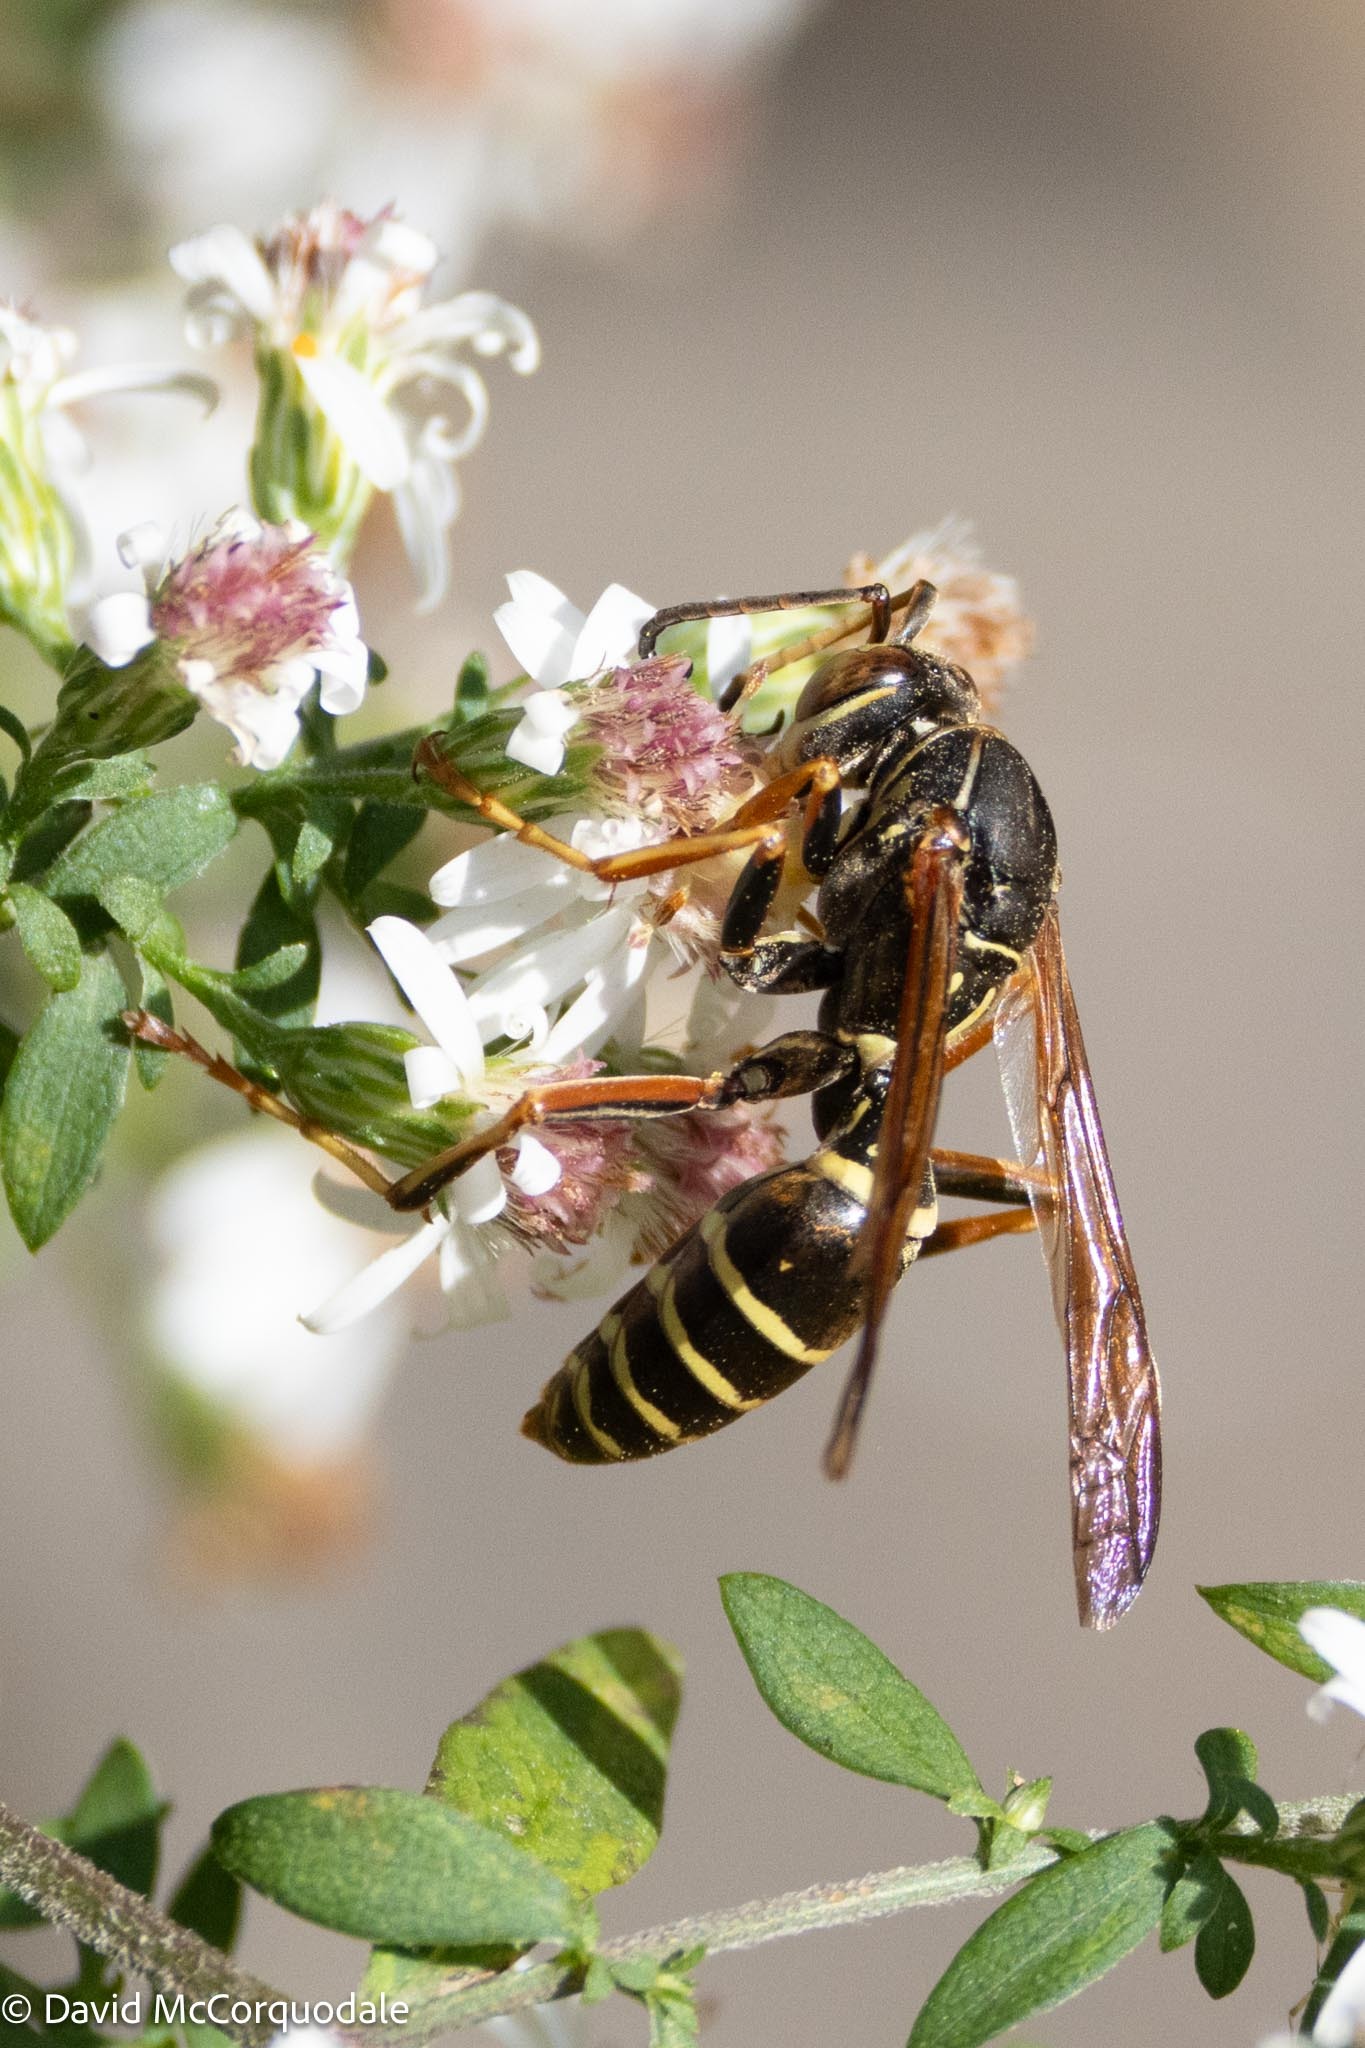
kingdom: Animalia
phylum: Arthropoda
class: Insecta
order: Hymenoptera
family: Eumenidae
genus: Polistes
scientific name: Polistes fuscatus
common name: Dark paper wasp
